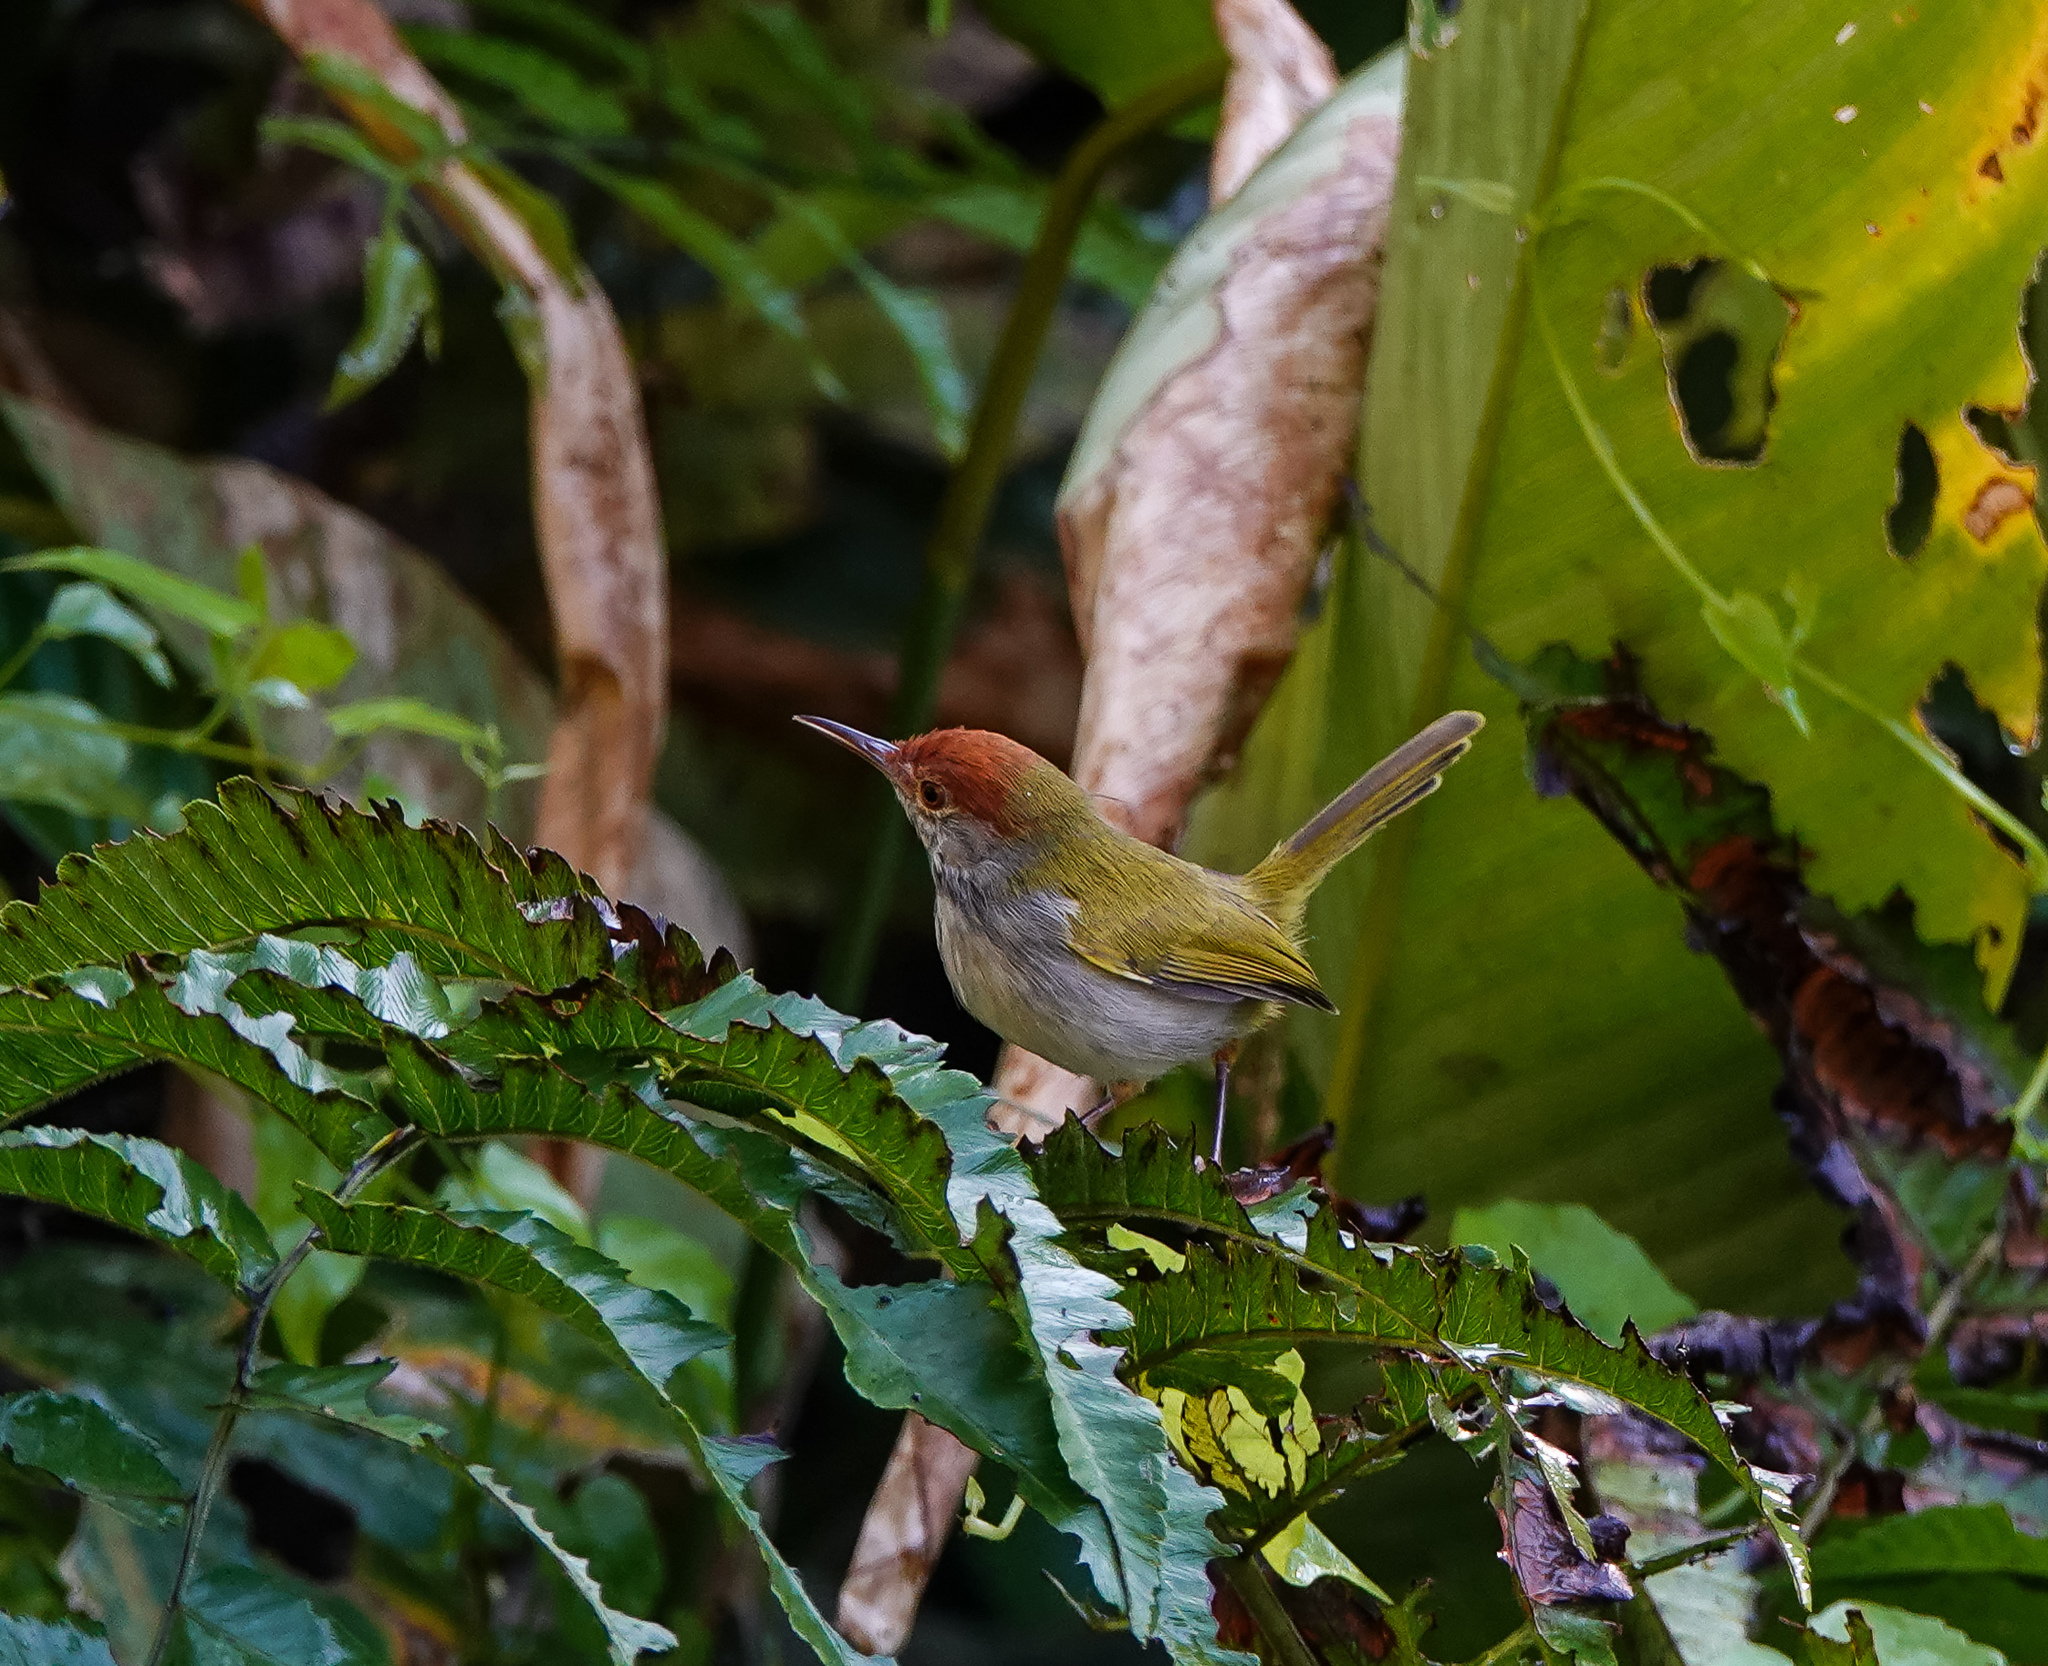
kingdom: Animalia
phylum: Chordata
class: Aves
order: Passeriformes
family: Cisticolidae
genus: Orthotomus
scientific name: Orthotomus atrogularis
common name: Dark-necked tailorbird
